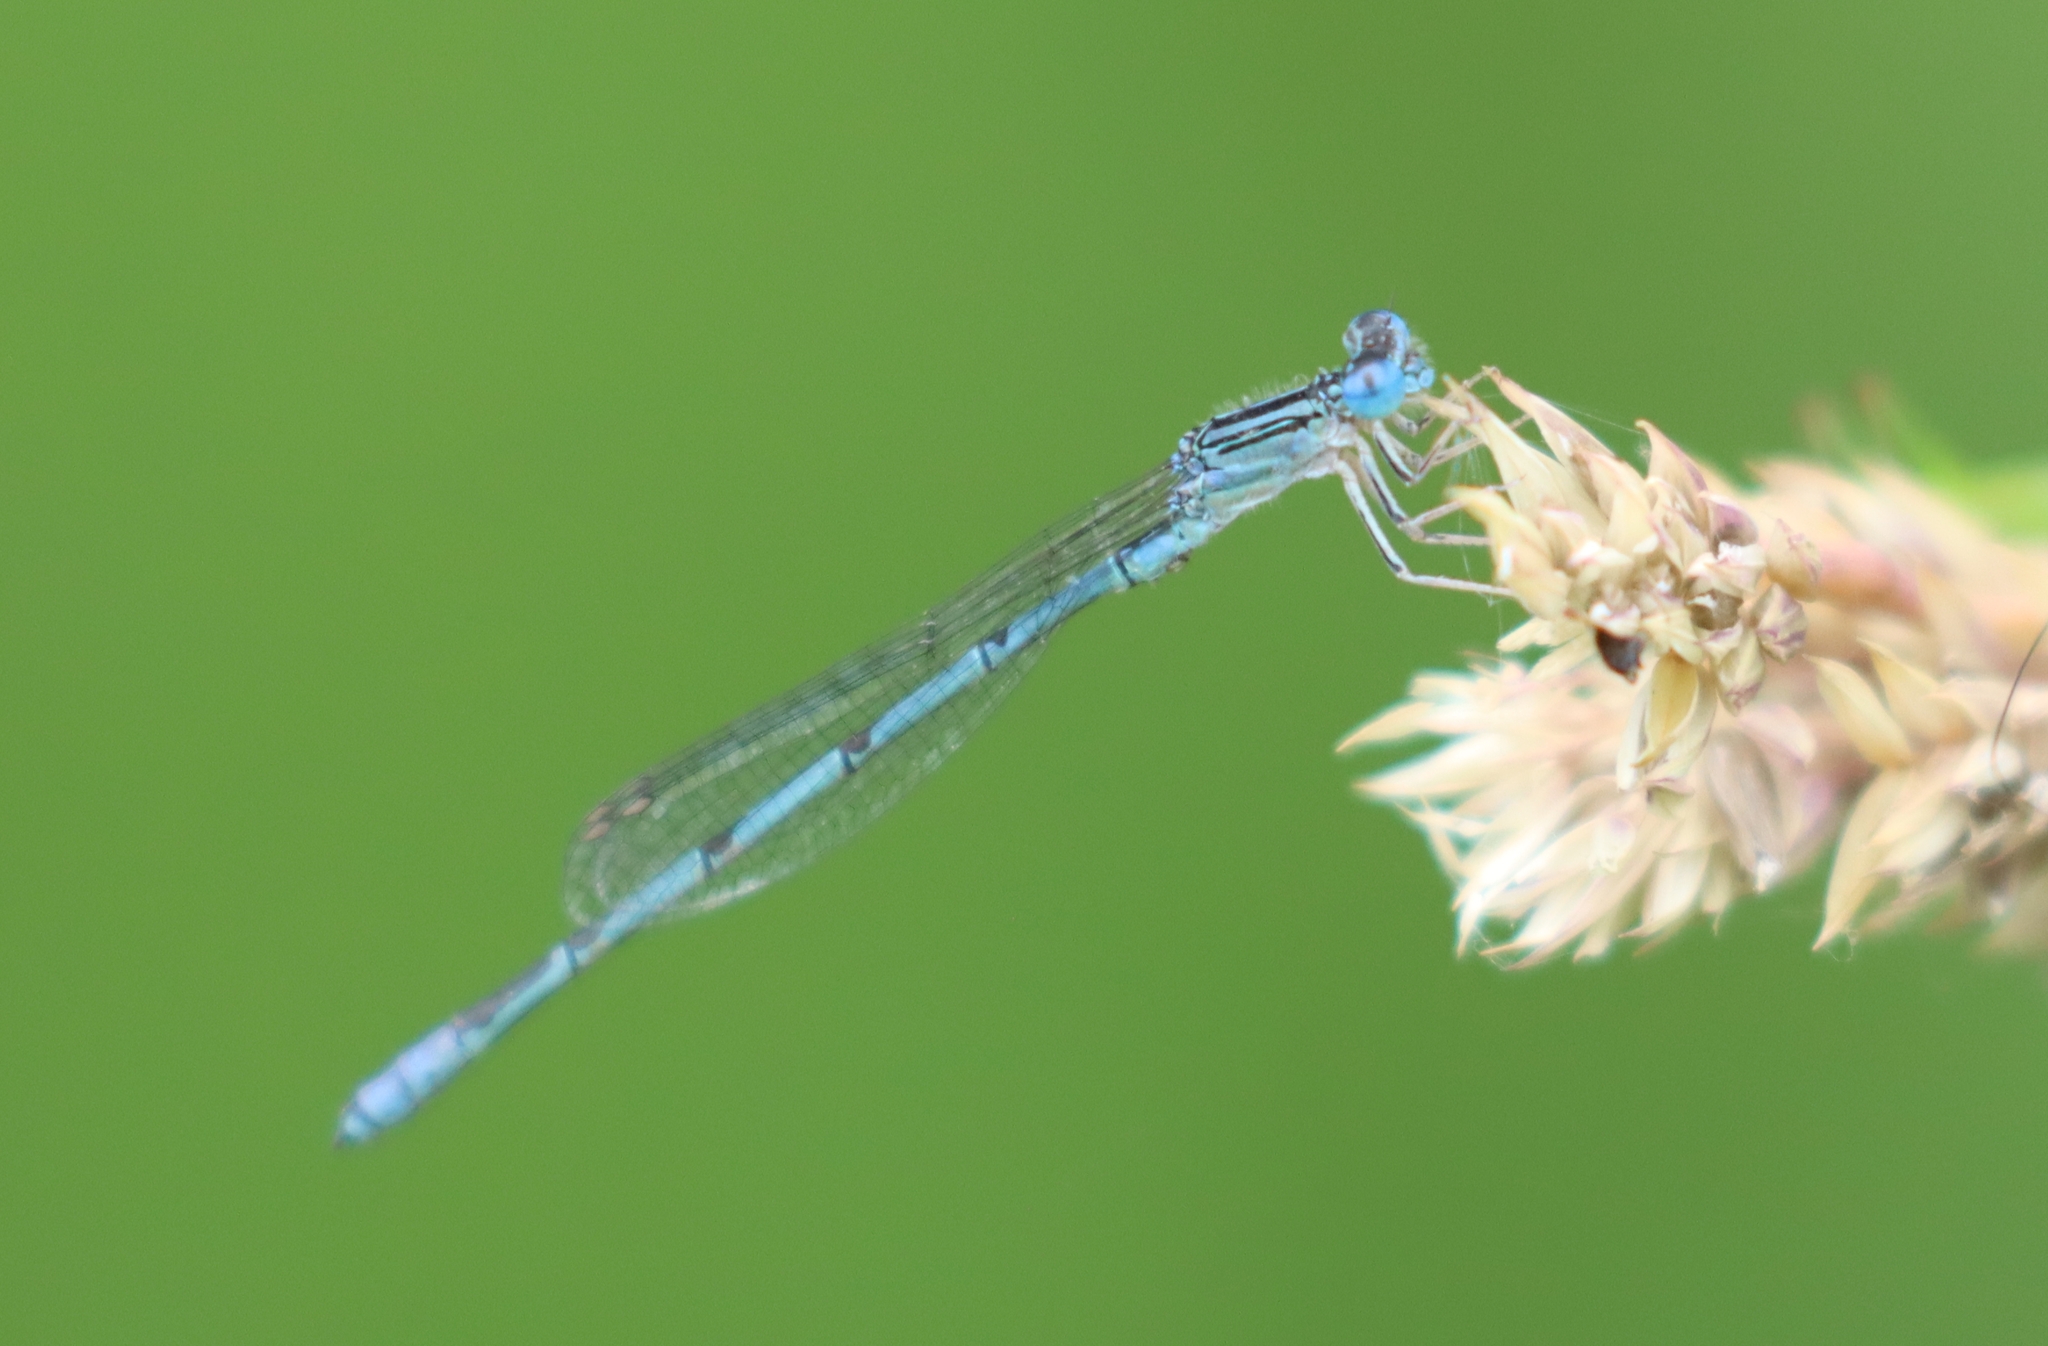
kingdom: Animalia
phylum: Arthropoda
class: Insecta
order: Odonata
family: Coenagrionidae
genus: Enallagma
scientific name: Enallagma basidens
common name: Double-striped bluet
